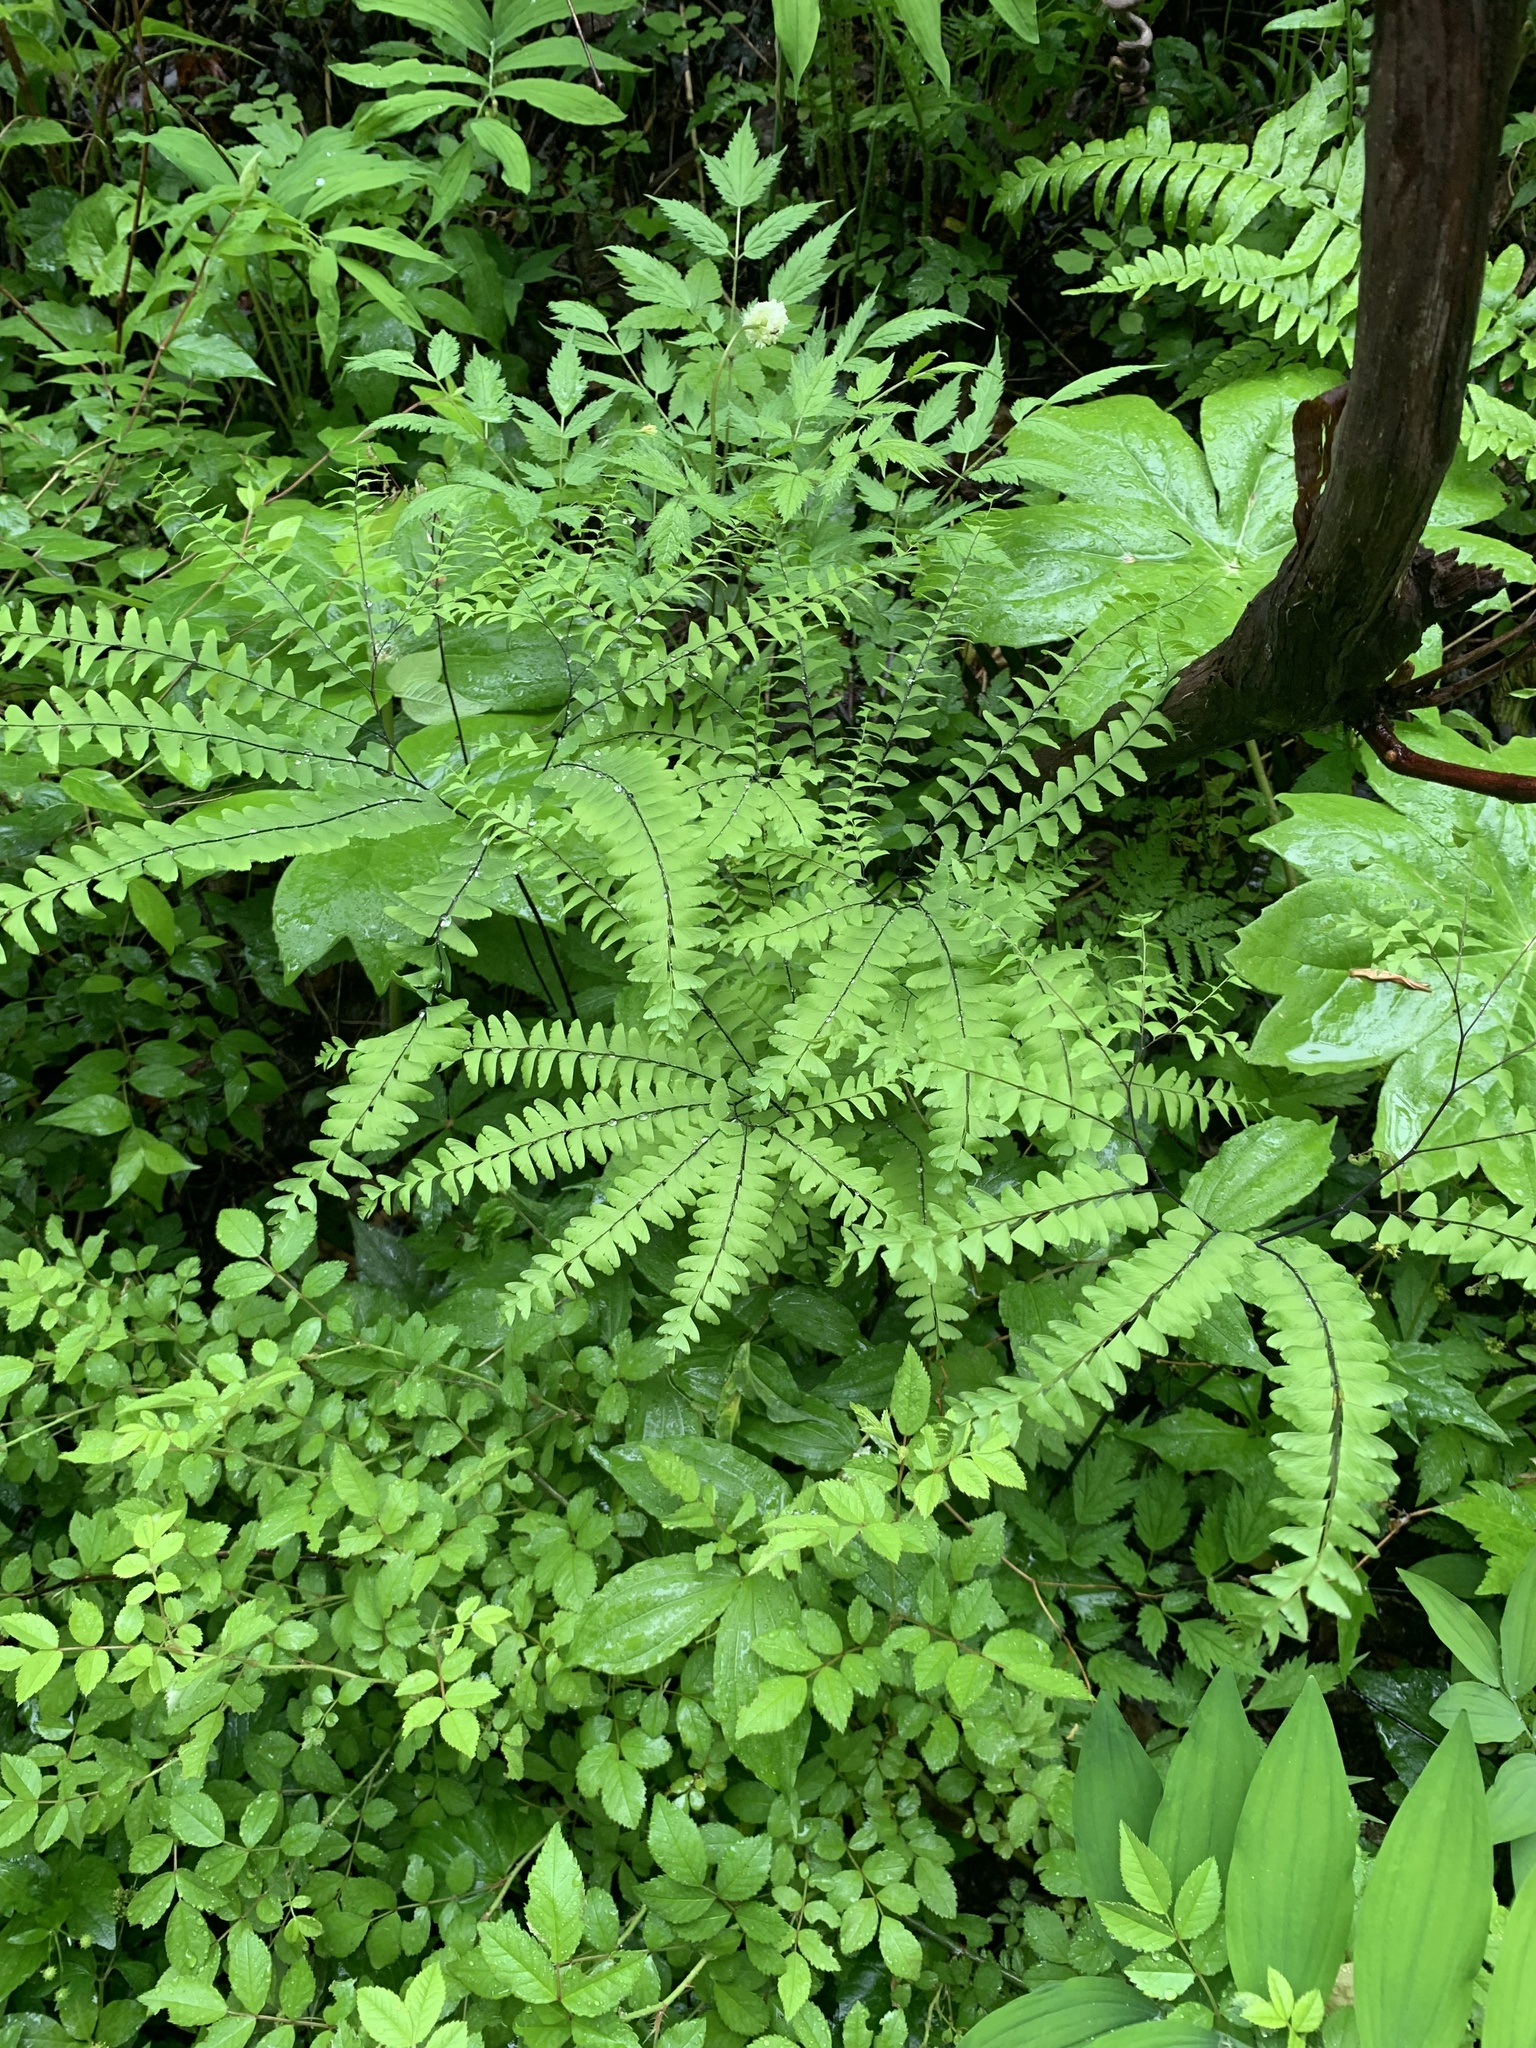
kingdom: Plantae
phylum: Tracheophyta
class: Polypodiopsida
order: Polypodiales
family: Pteridaceae
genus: Adiantum
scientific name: Adiantum pedatum
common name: Five-finger fern
